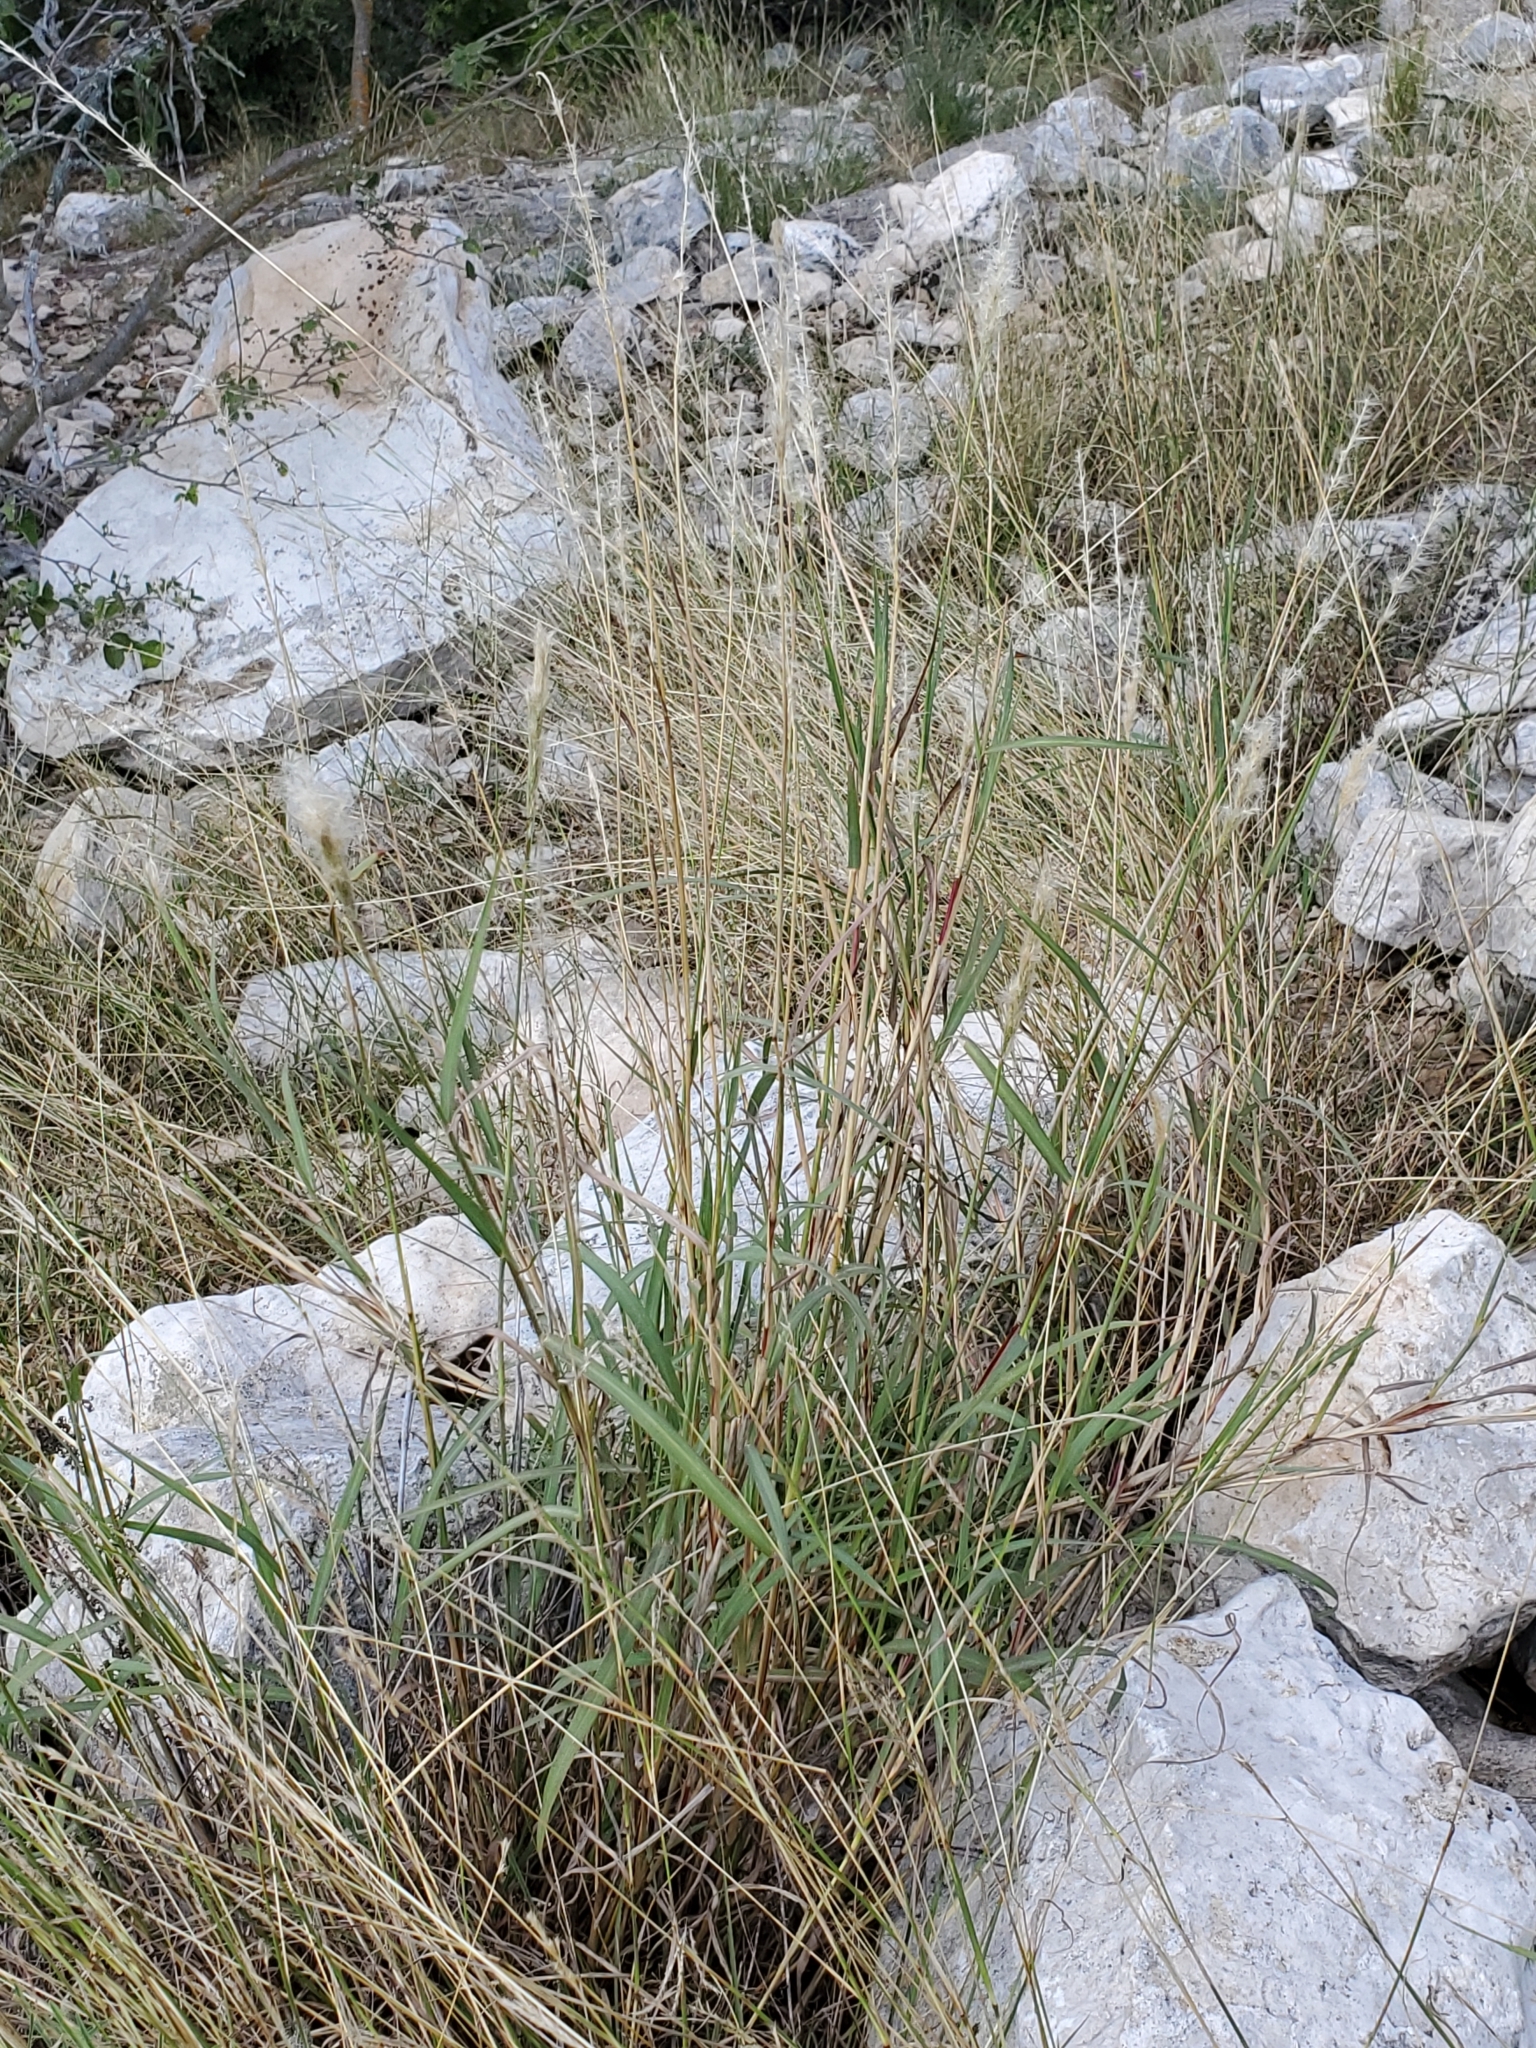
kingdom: Plantae
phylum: Tracheophyta
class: Liliopsida
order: Poales
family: Poaceae
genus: Bothriochloa
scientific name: Bothriochloa torreyana
